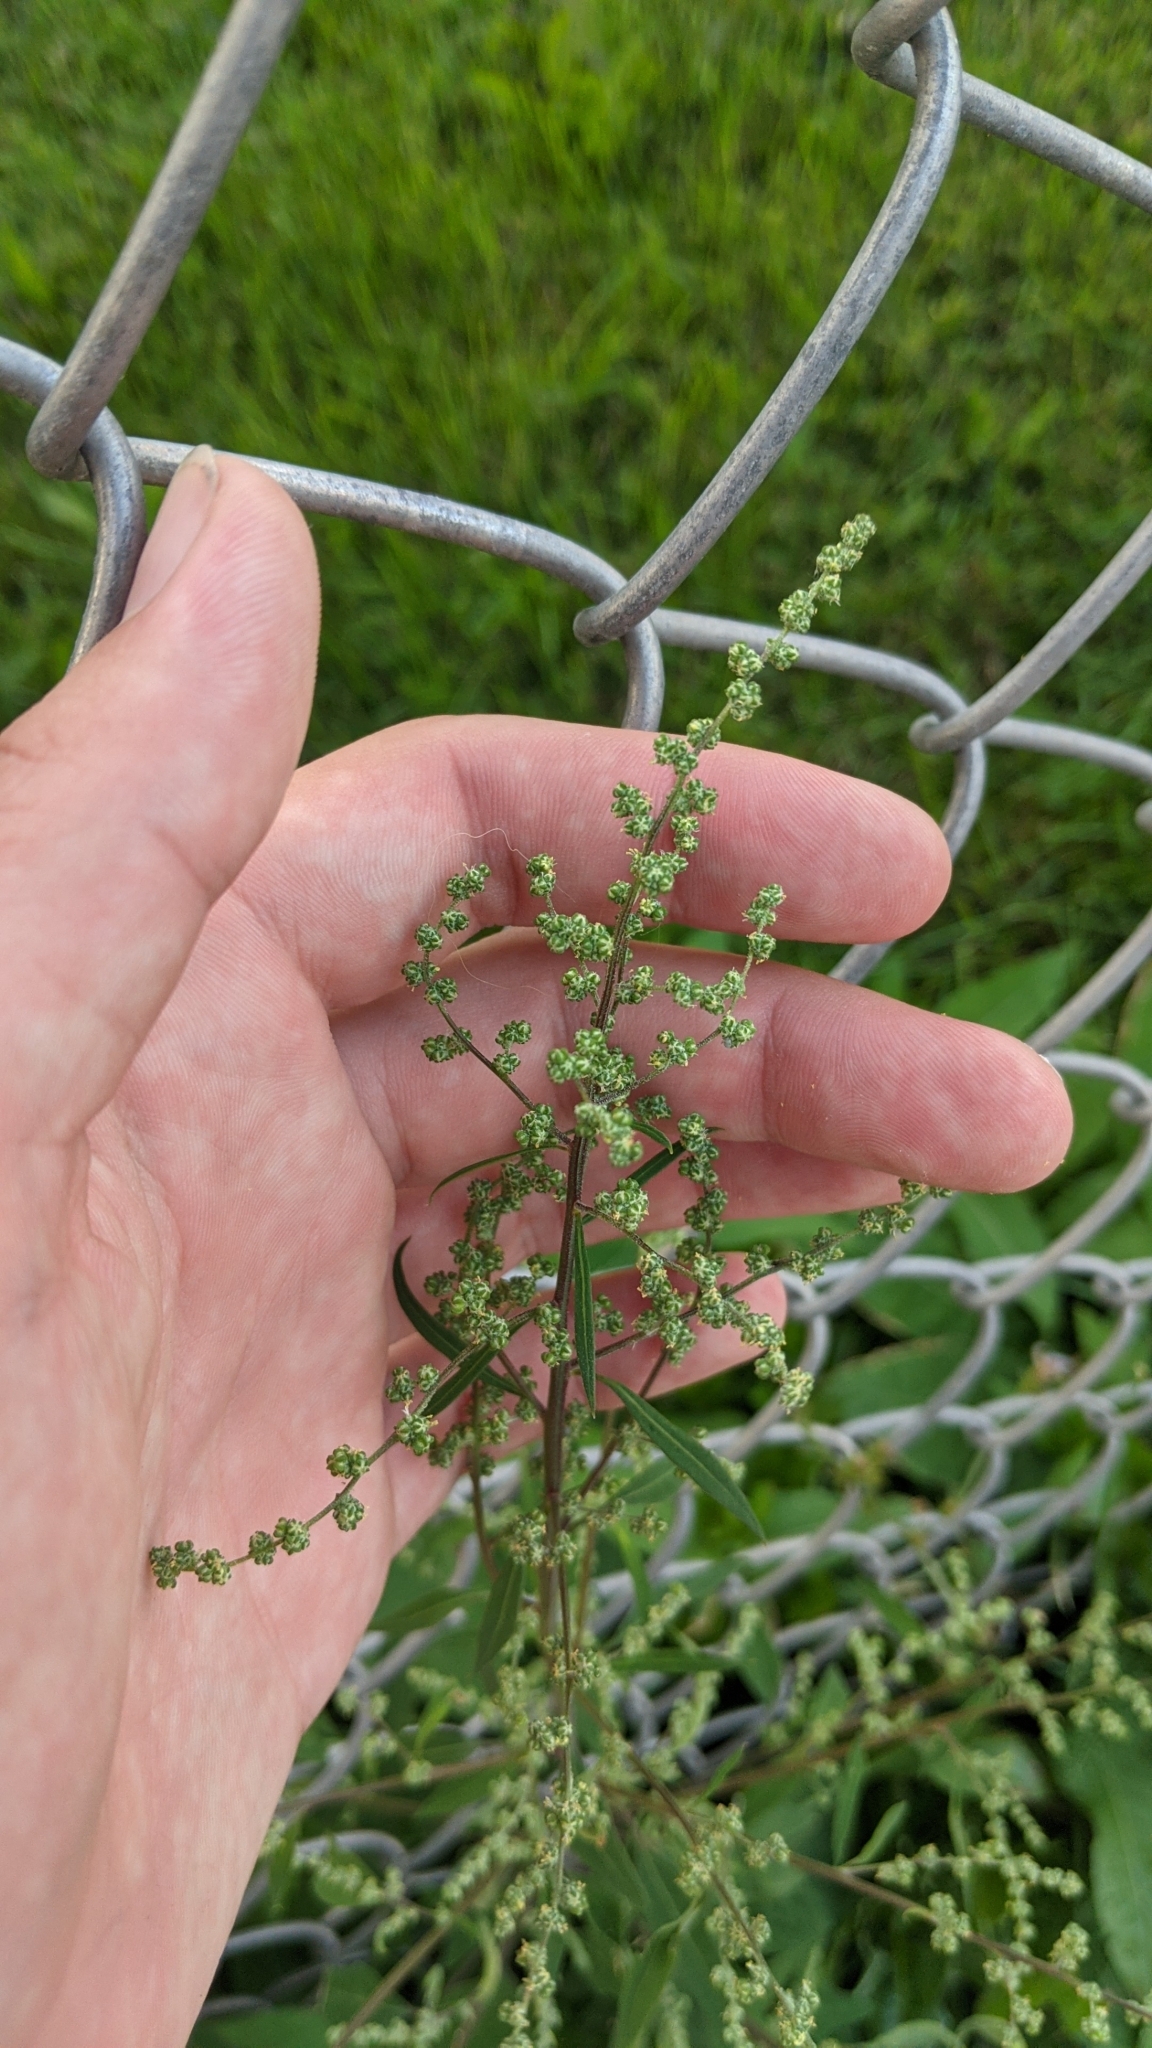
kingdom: Plantae
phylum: Tracheophyta
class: Magnoliopsida
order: Caryophyllales
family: Amaranthaceae
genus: Chenopodium
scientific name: Chenopodium album
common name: Fat-hen
